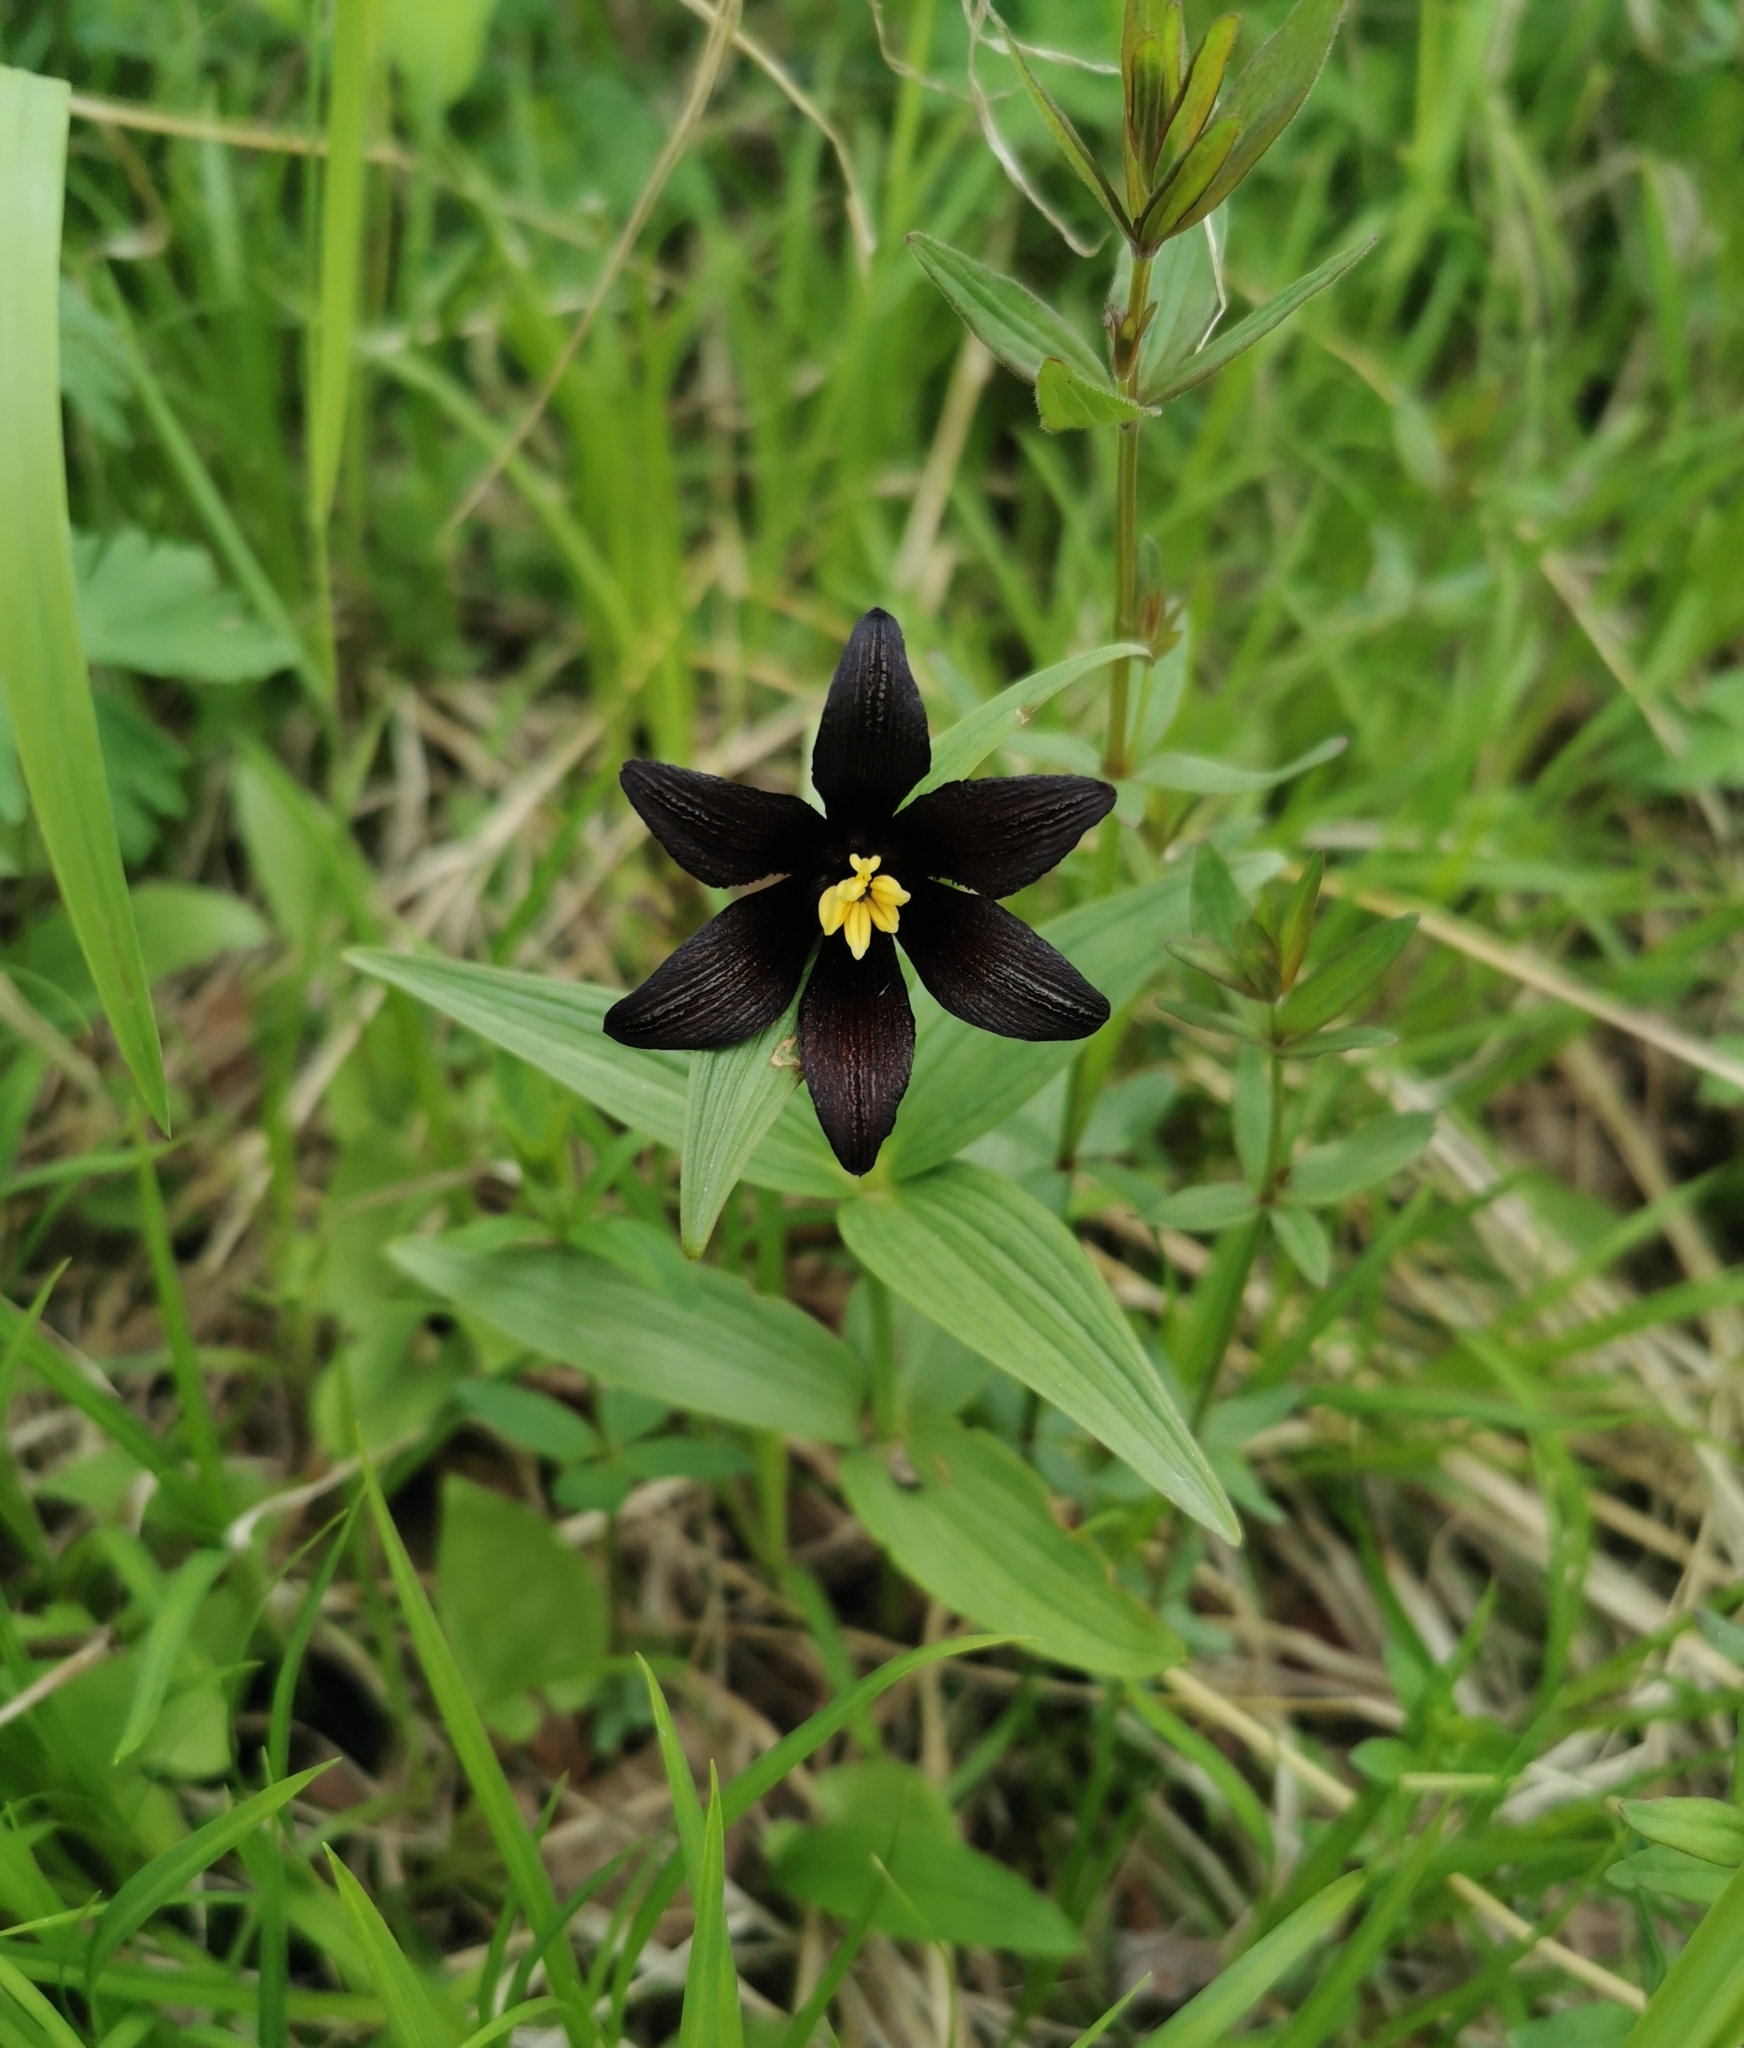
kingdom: Plantae
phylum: Tracheophyta
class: Liliopsida
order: Liliales
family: Liliaceae
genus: Fritillaria
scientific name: Fritillaria camschatcensis
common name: Kamchatka fritillary
